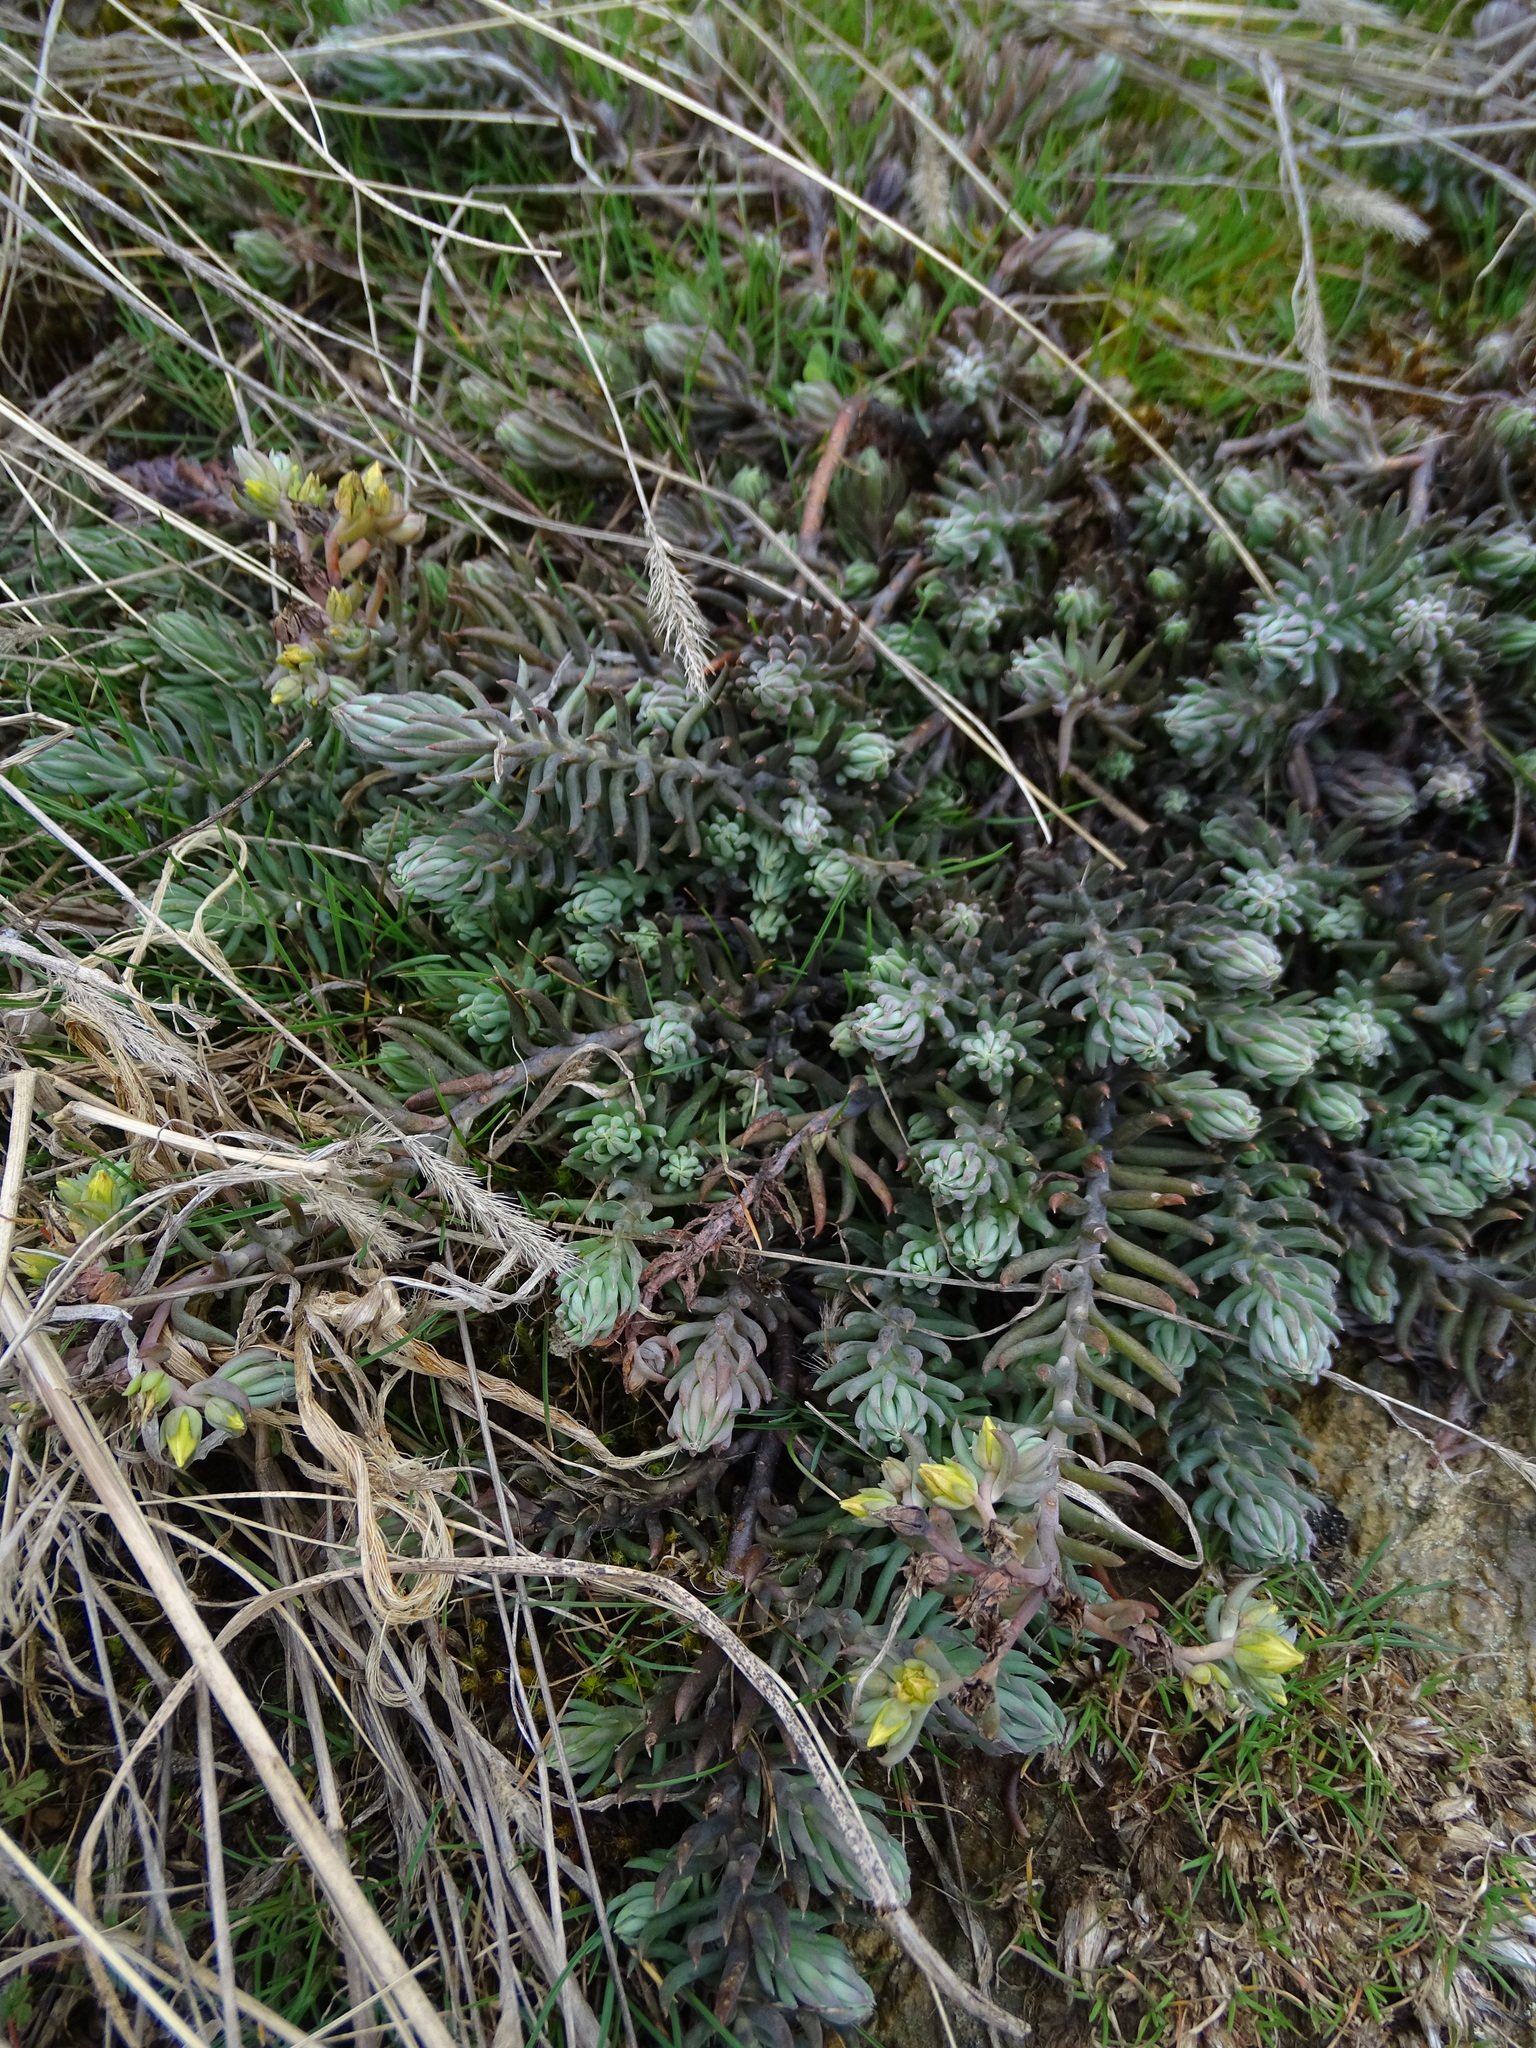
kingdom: Plantae
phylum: Tracheophyta
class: Magnoliopsida
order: Saxifragales
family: Crassulaceae
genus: Petrosedum
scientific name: Petrosedum rupestre
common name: Jenny's stonecrop
